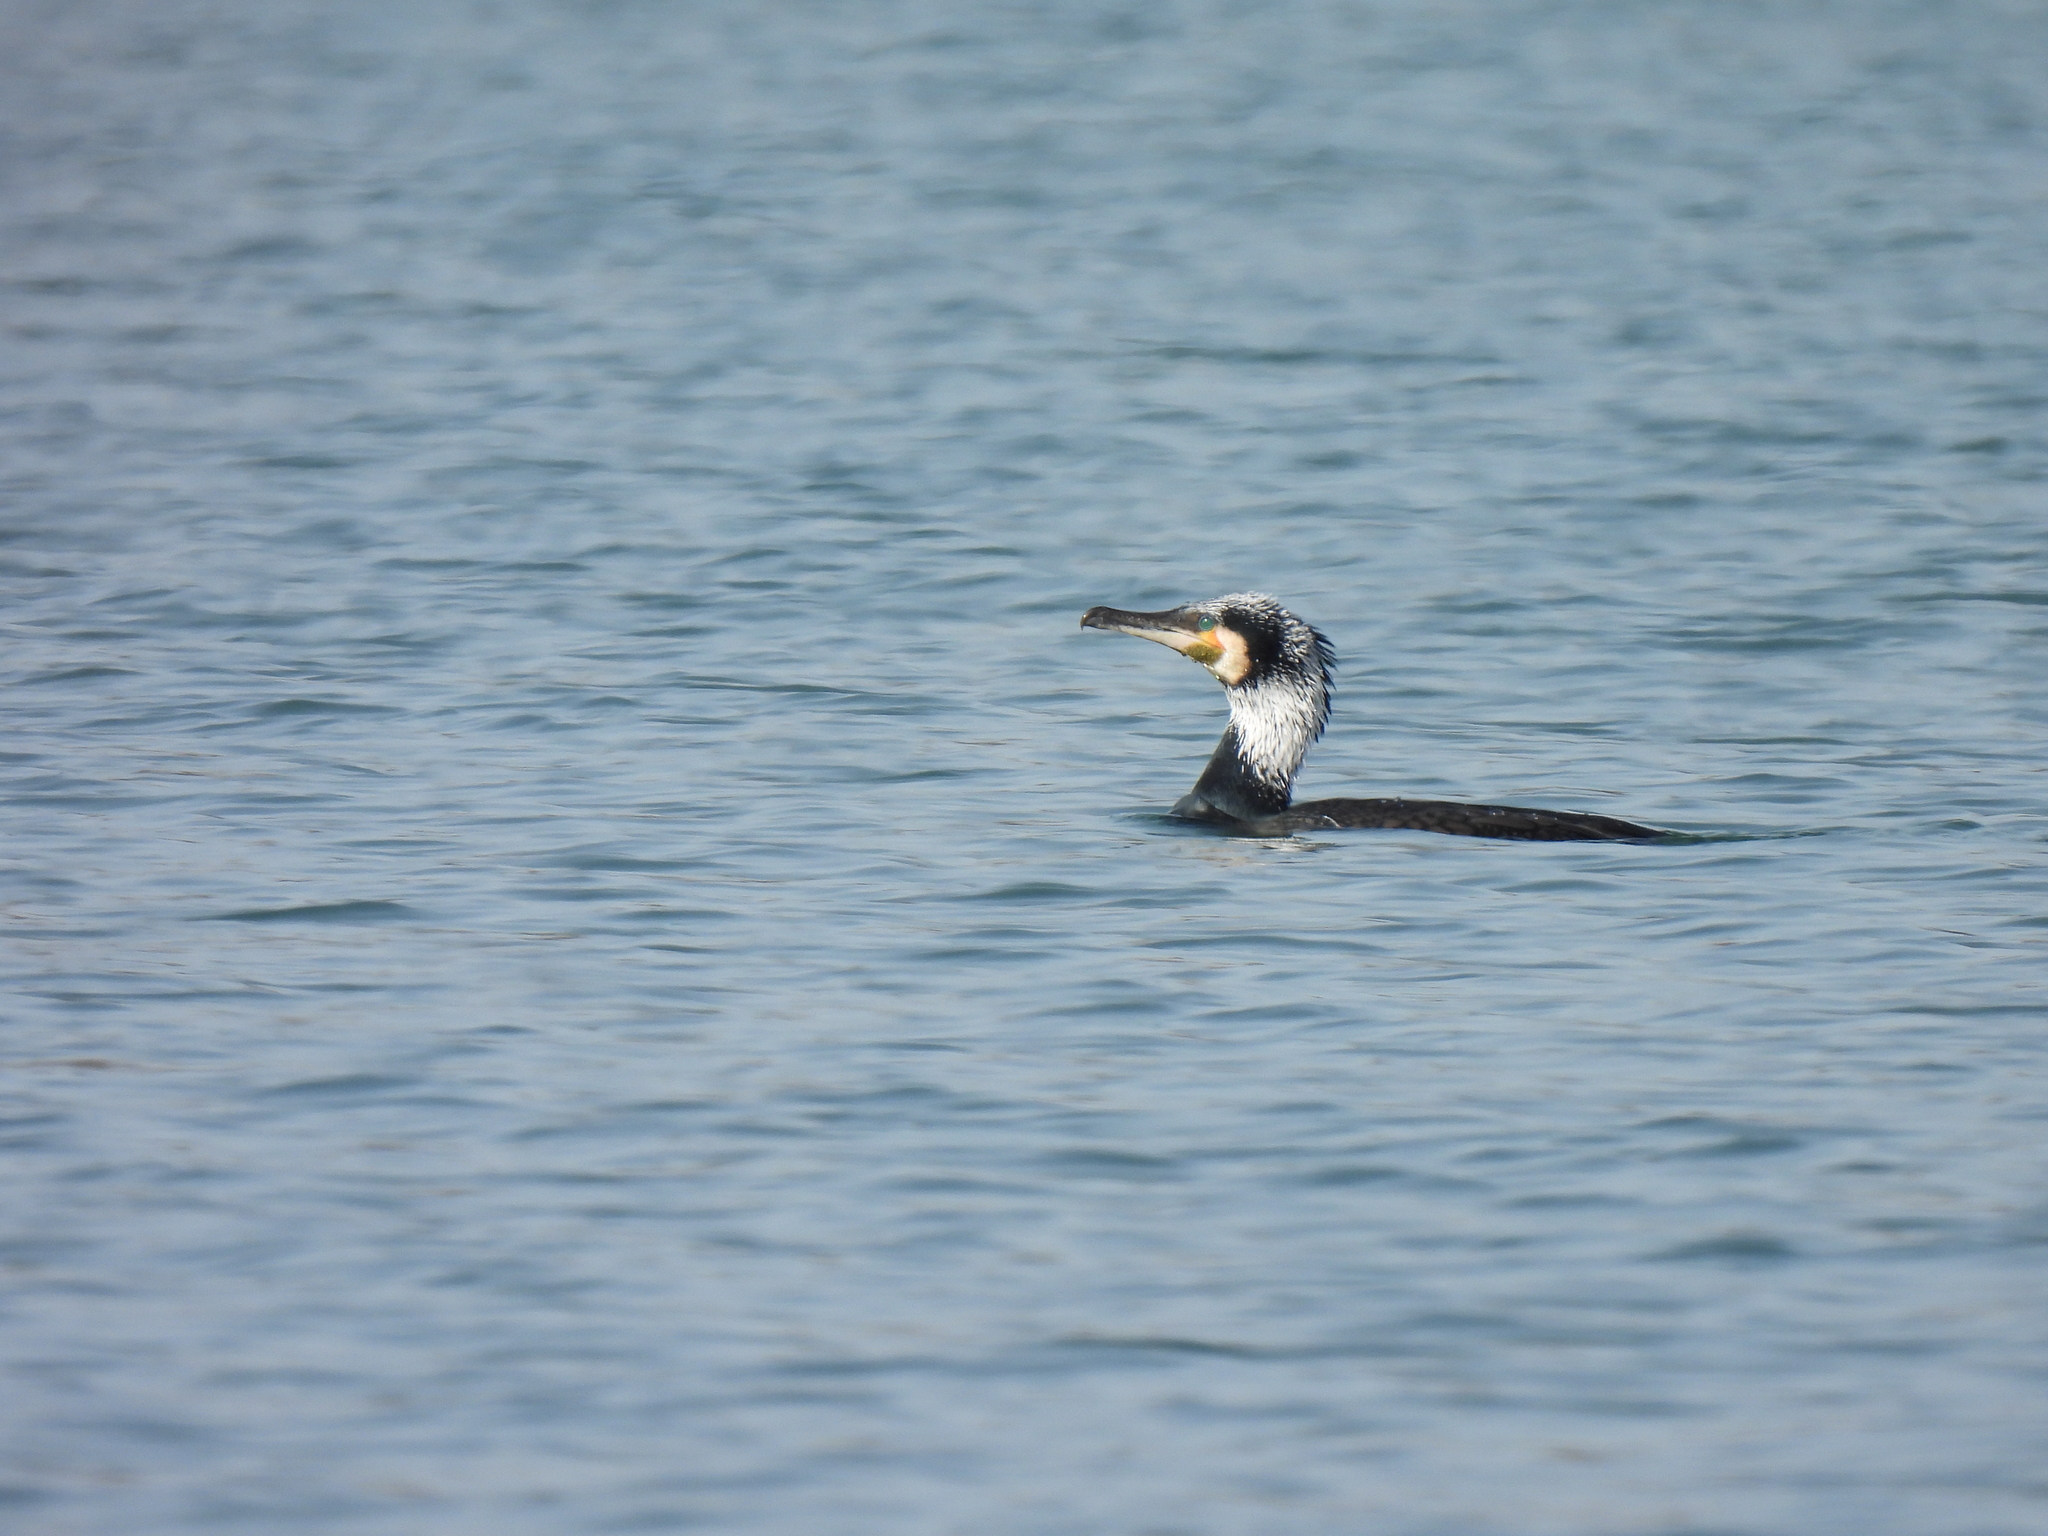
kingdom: Animalia
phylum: Chordata
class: Aves
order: Suliformes
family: Phalacrocoracidae
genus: Phalacrocorax
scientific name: Phalacrocorax carbo
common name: Great cormorant
